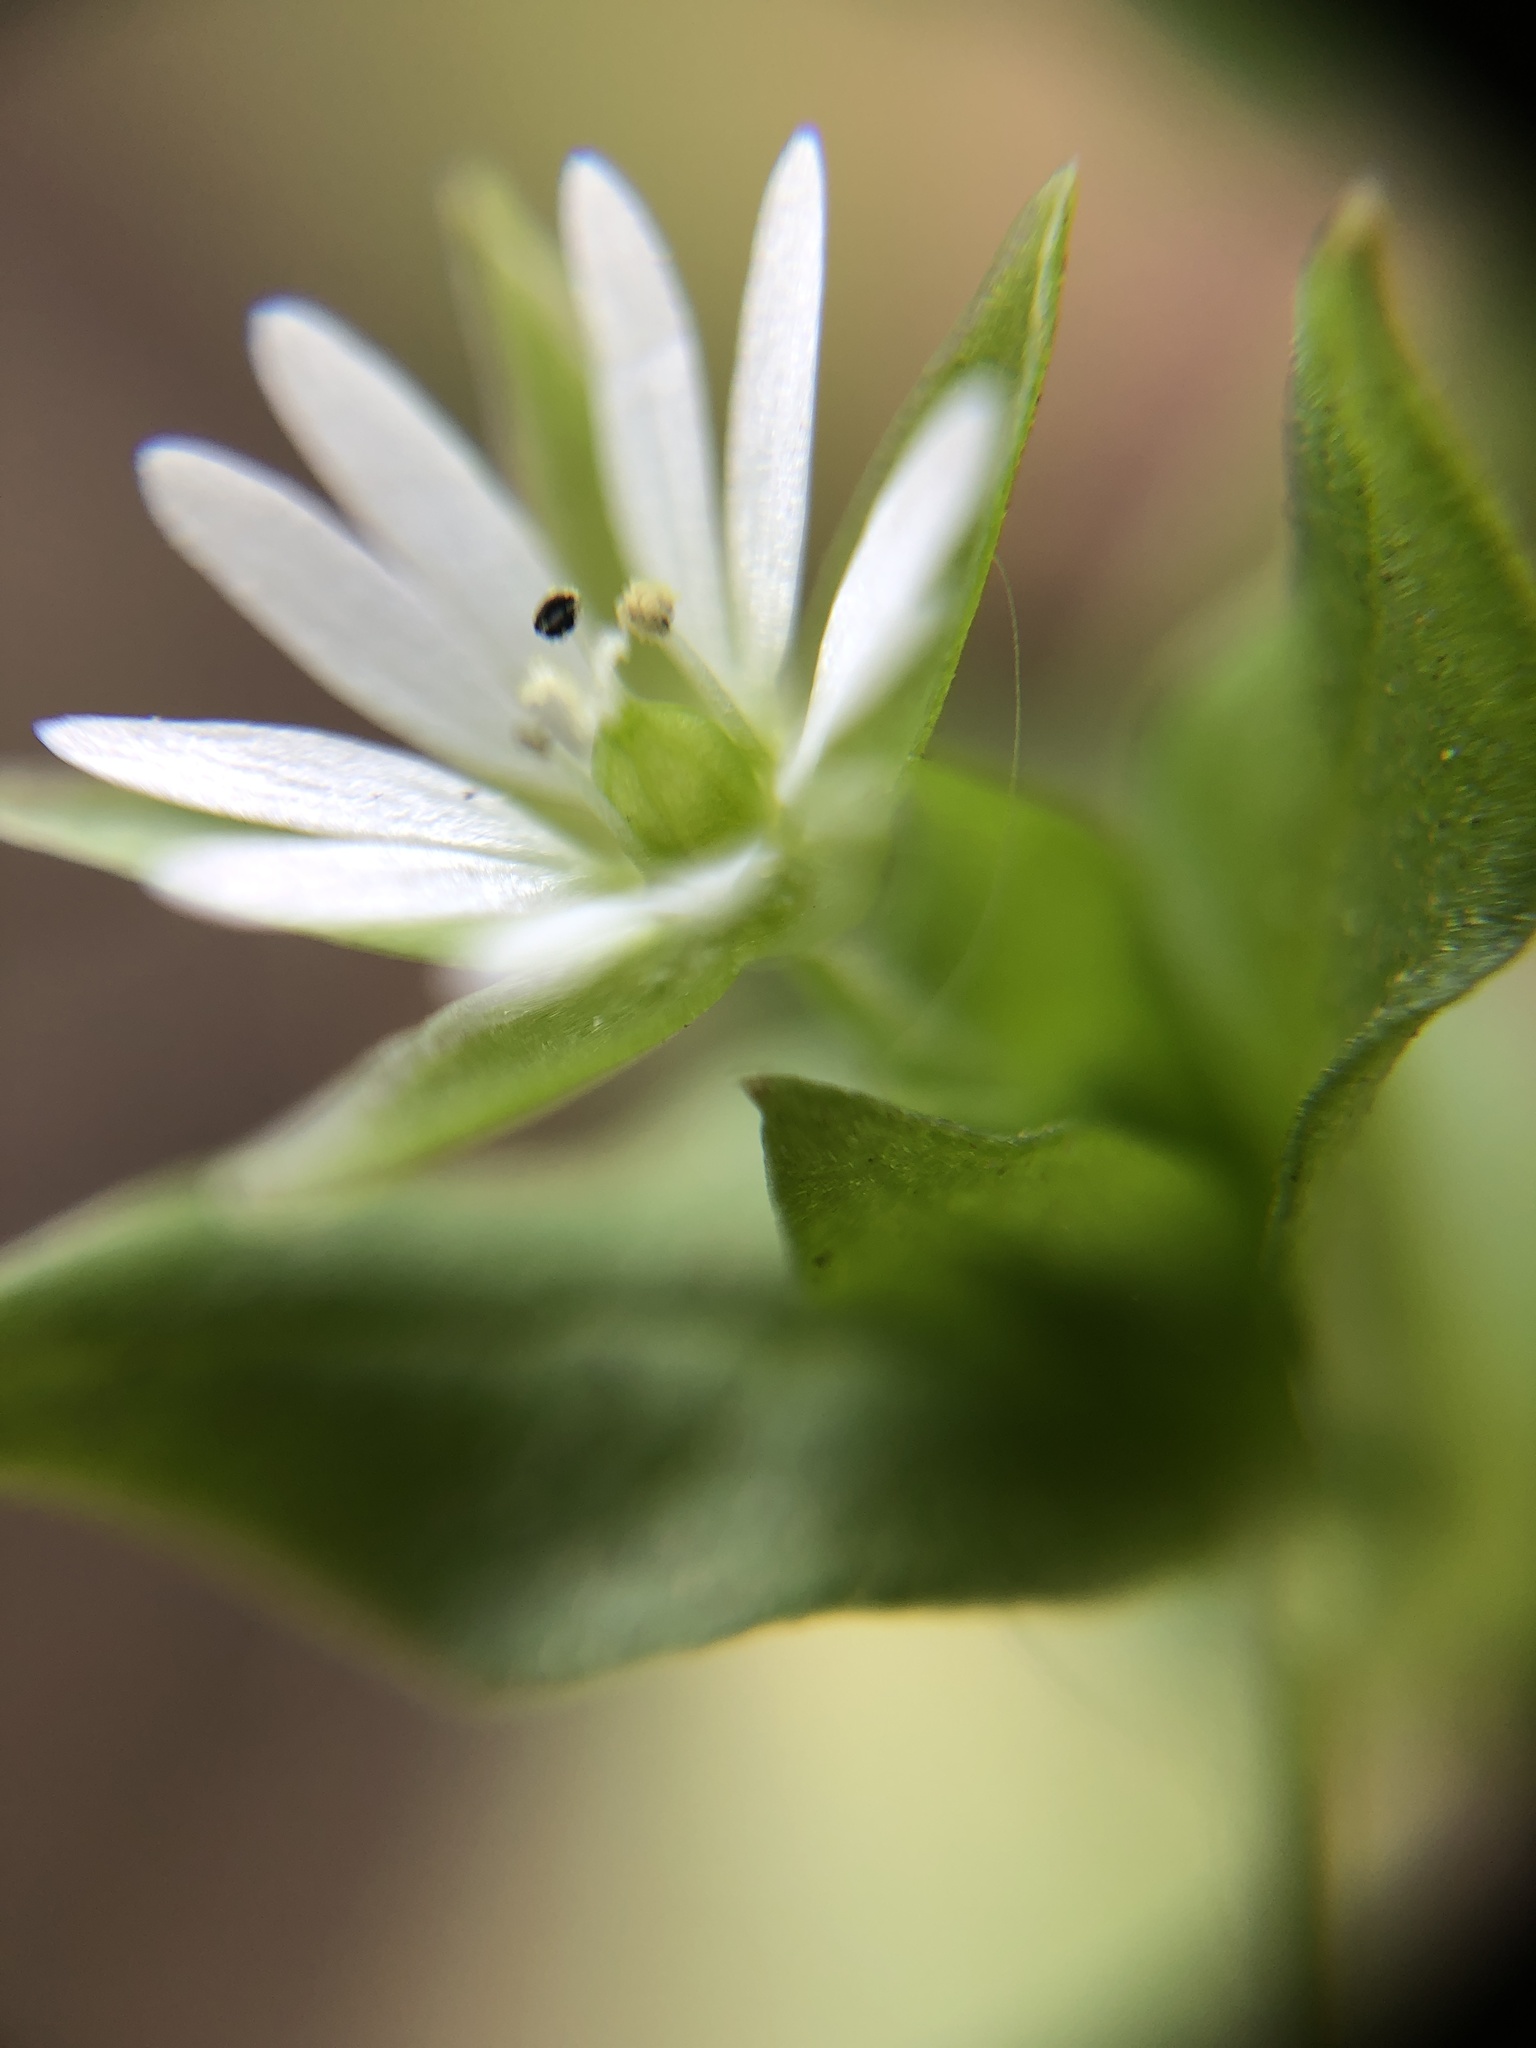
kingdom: Plantae
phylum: Tracheophyta
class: Magnoliopsida
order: Caryophyllales
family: Caryophyllaceae
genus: Stellaria
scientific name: Stellaria media
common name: Common chickweed
